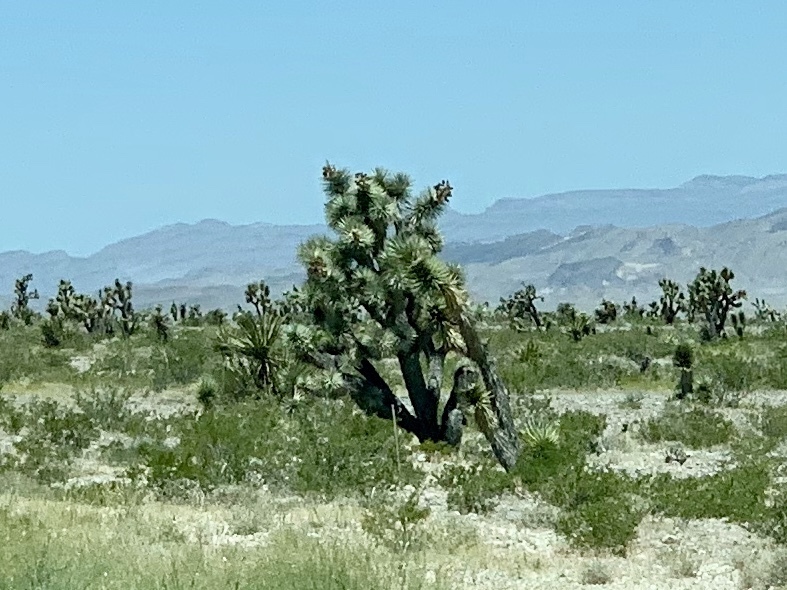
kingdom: Plantae
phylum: Tracheophyta
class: Liliopsida
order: Asparagales
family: Asparagaceae
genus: Yucca
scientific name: Yucca brevifolia
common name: Joshua tree
